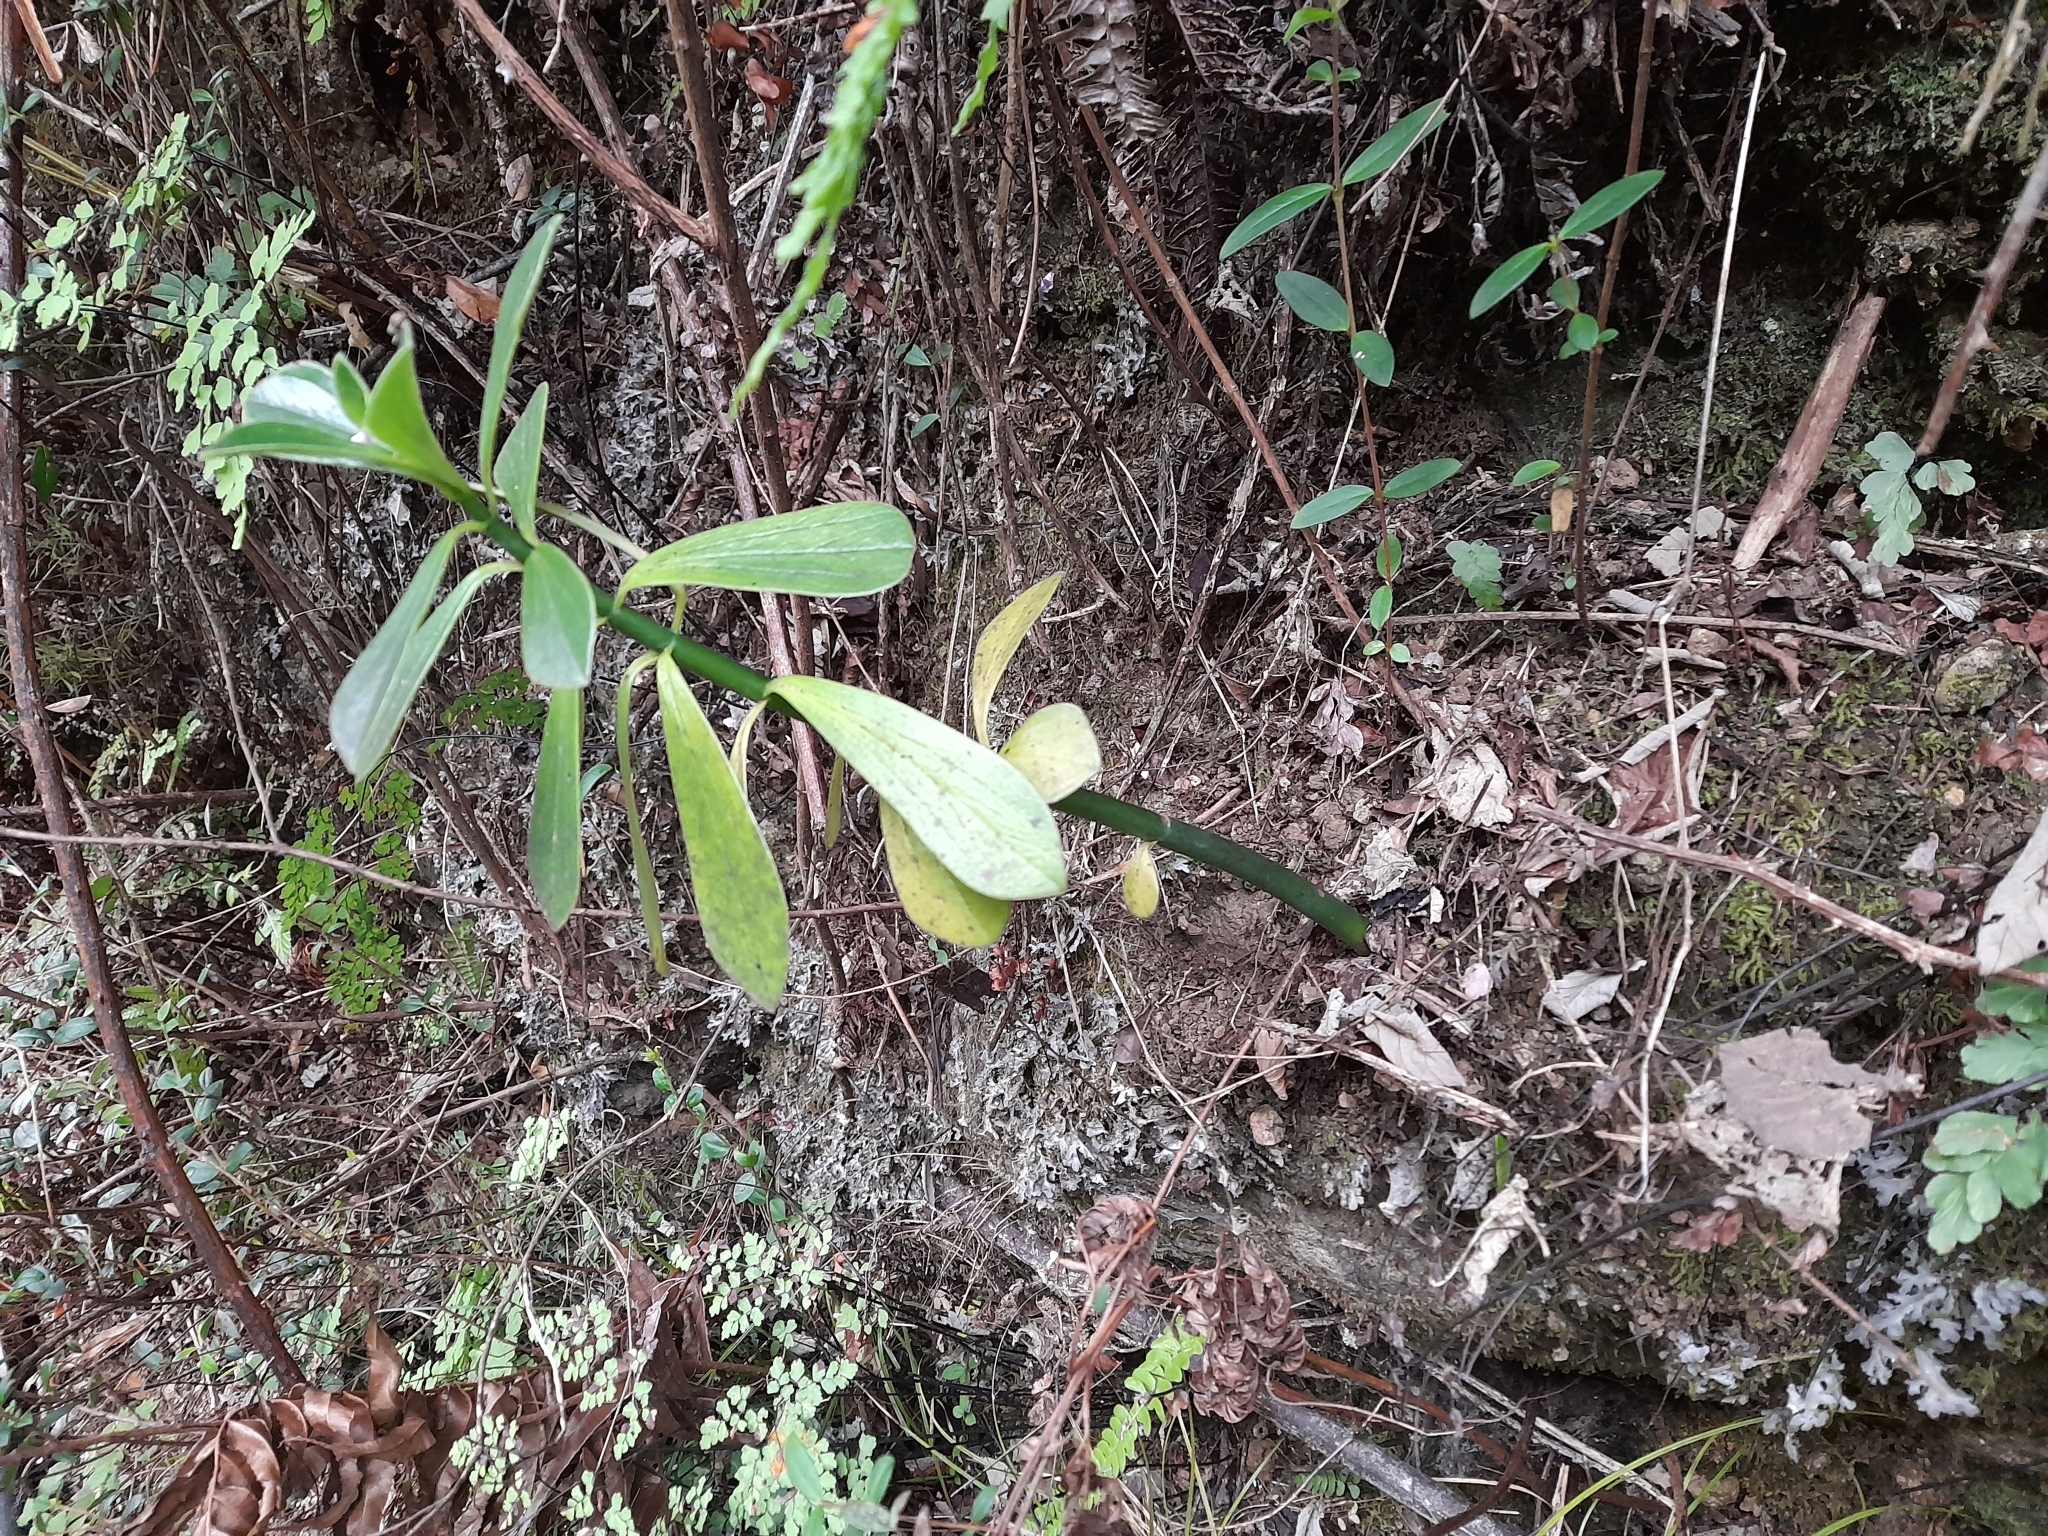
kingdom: Plantae
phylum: Tracheophyta
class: Magnoliopsida
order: Piperales
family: Piperaceae
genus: Peperomia
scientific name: Peperomia berteroana
